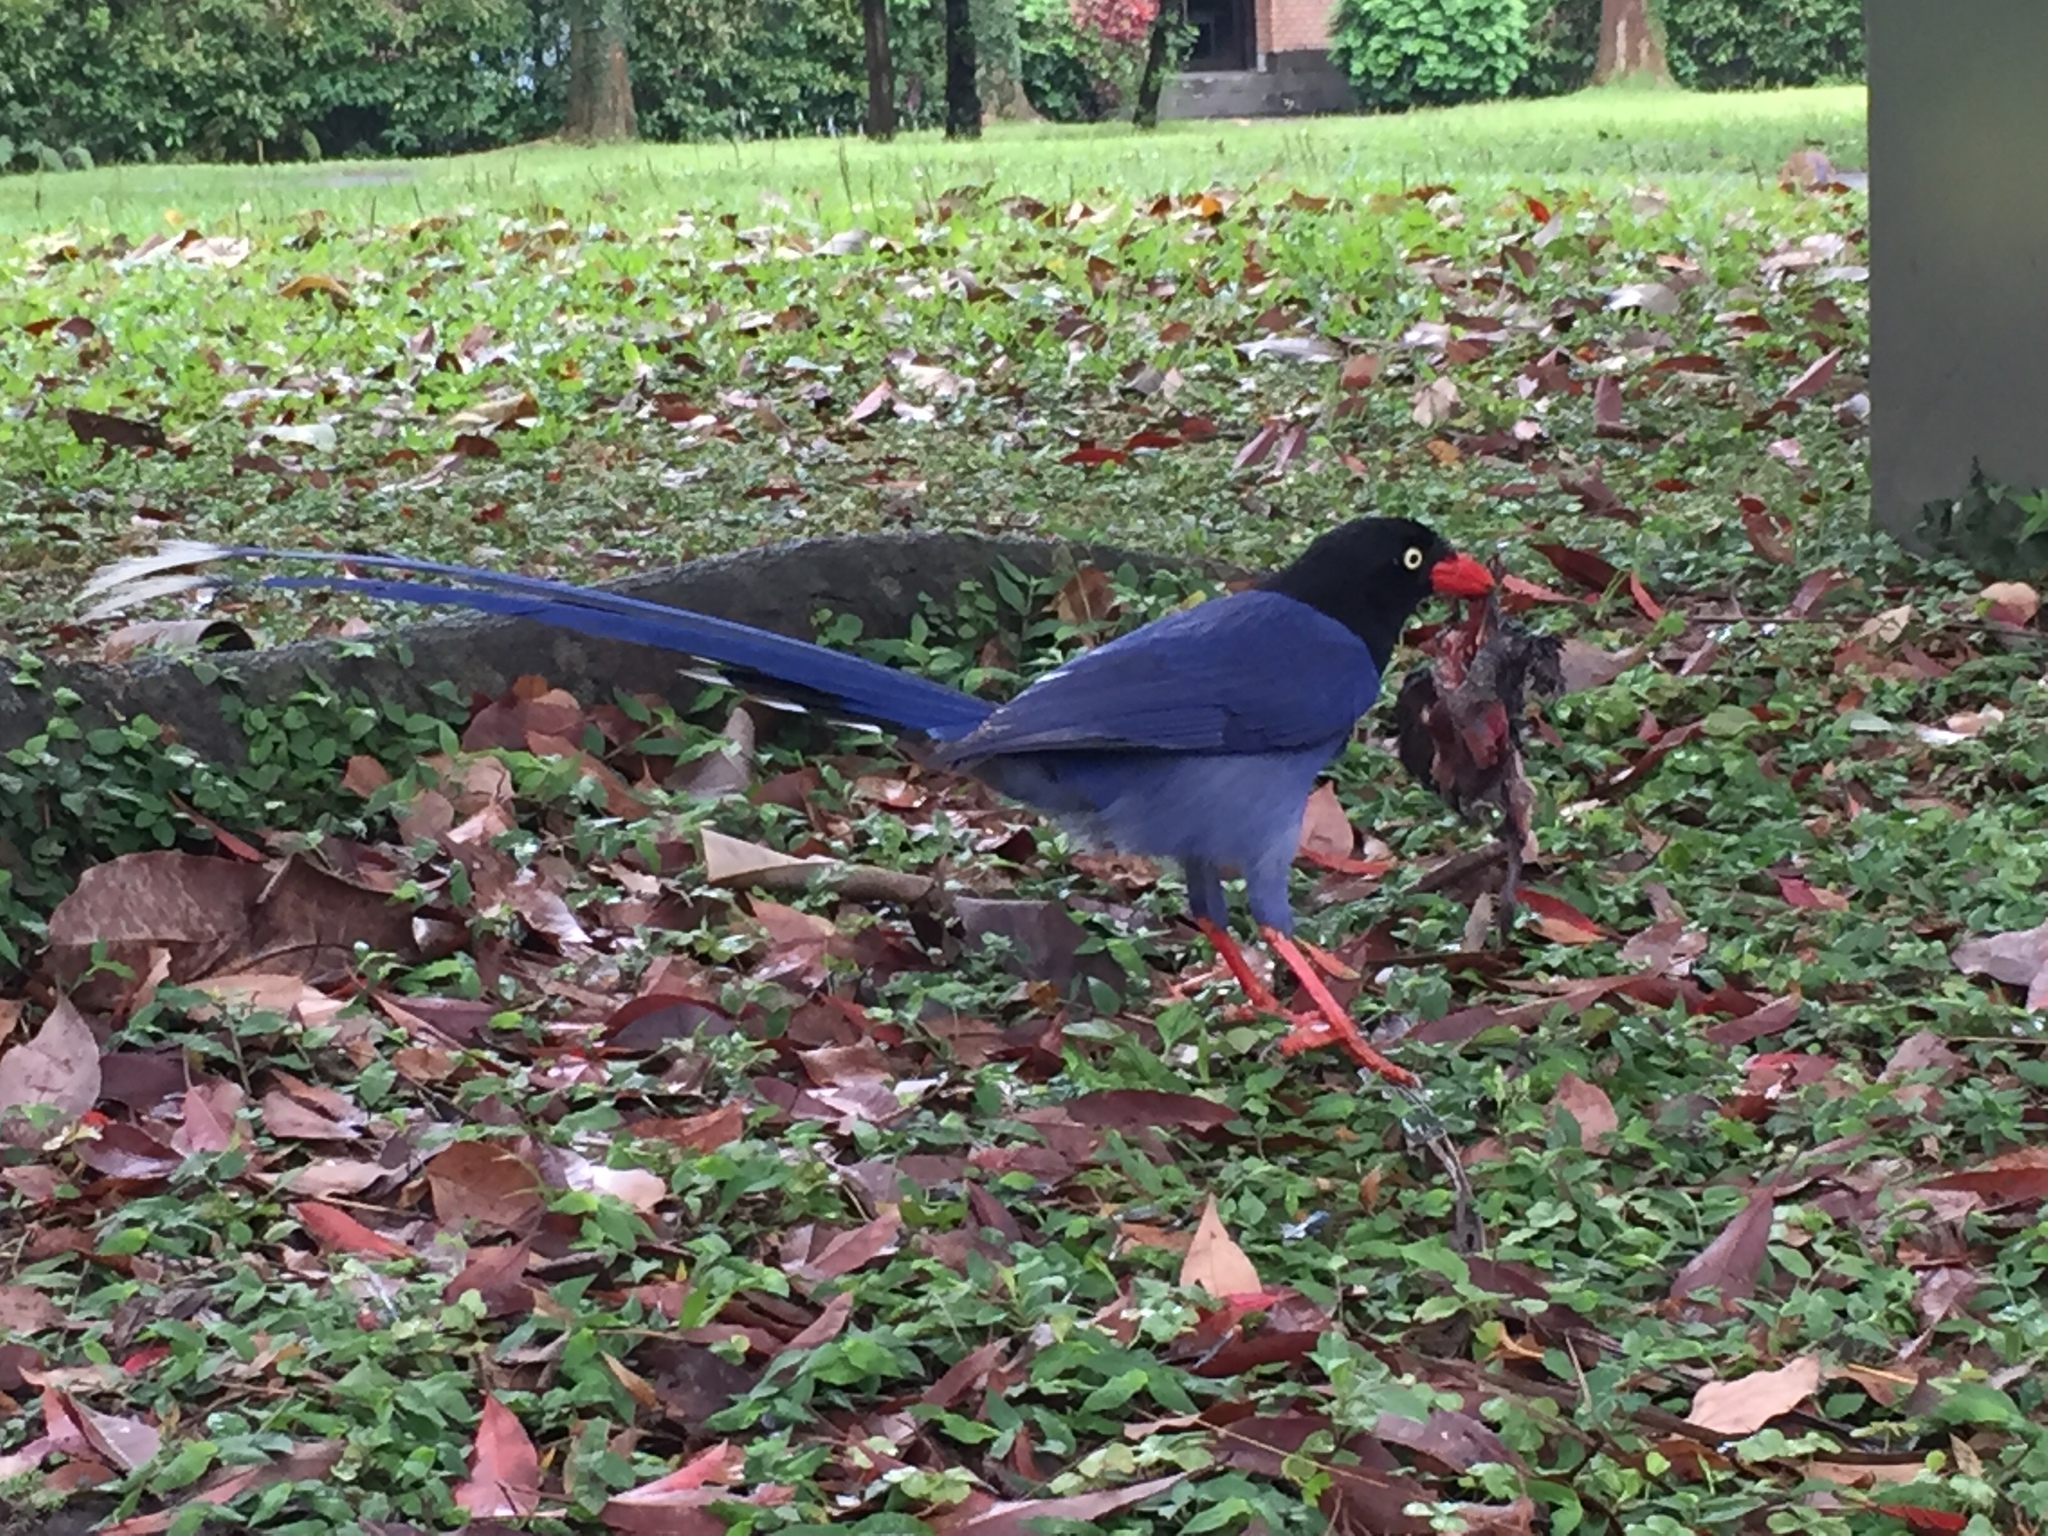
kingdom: Animalia
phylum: Chordata
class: Aves
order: Passeriformes
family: Corvidae
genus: Urocissa
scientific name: Urocissa caerulea
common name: Taiwan blue magpie
